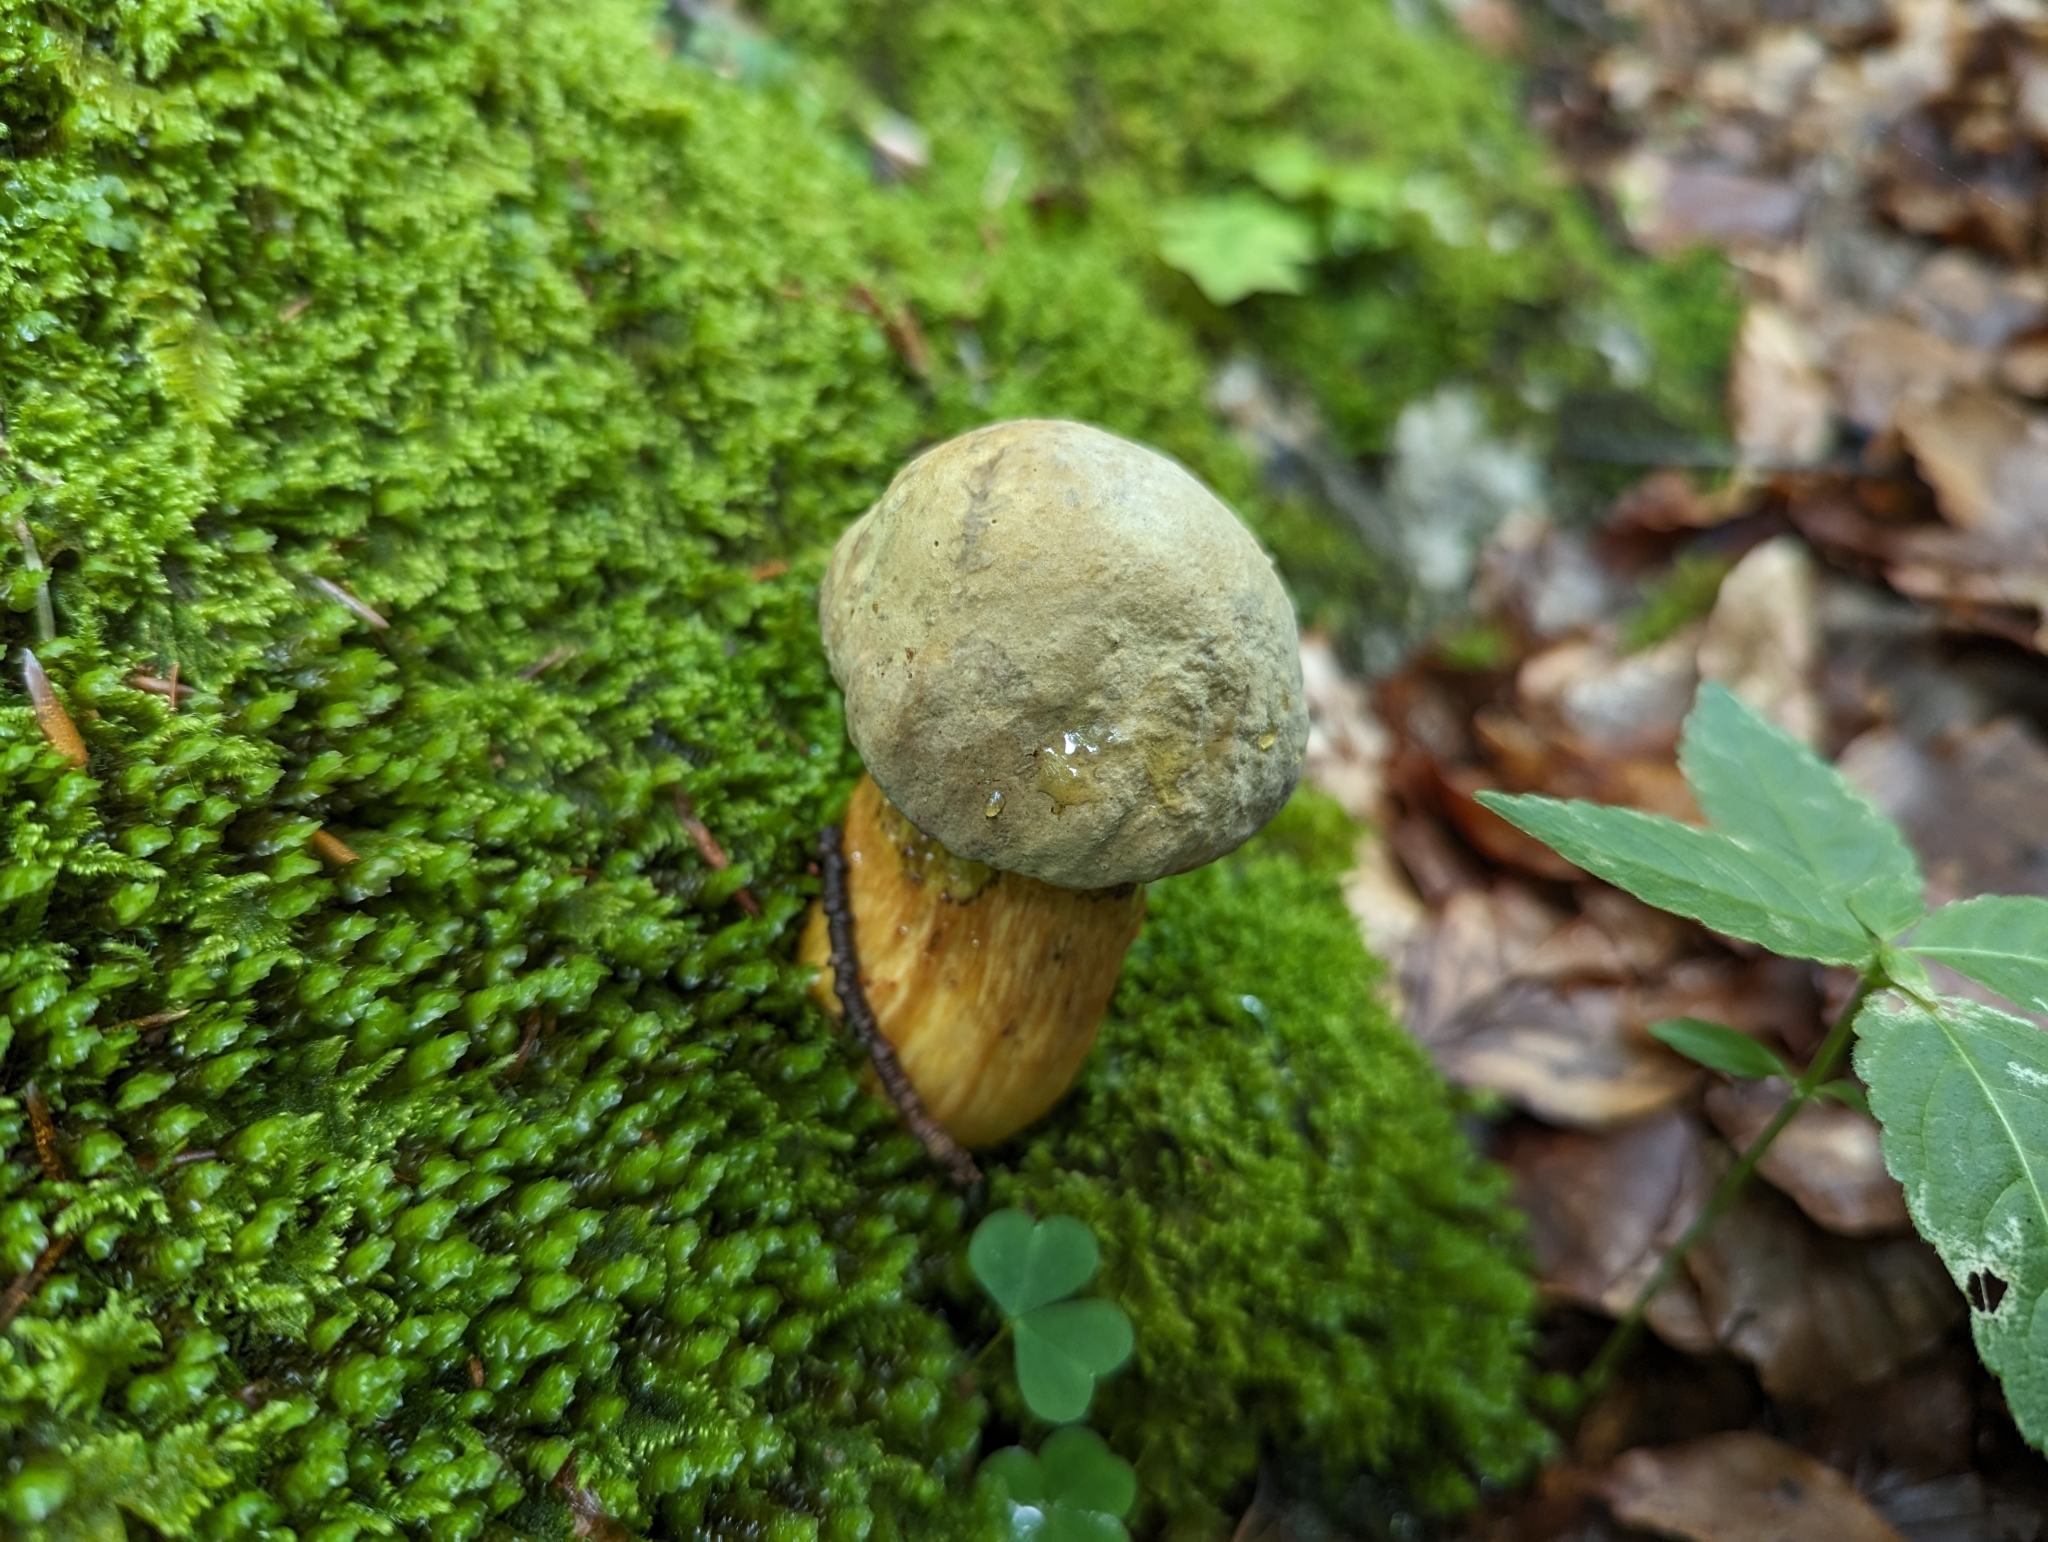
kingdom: Fungi
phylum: Basidiomycota
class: Agaricomycetes
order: Boletales
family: Boletaceae
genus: Suillellus
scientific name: Suillellus luridus
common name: Lurid bolete
